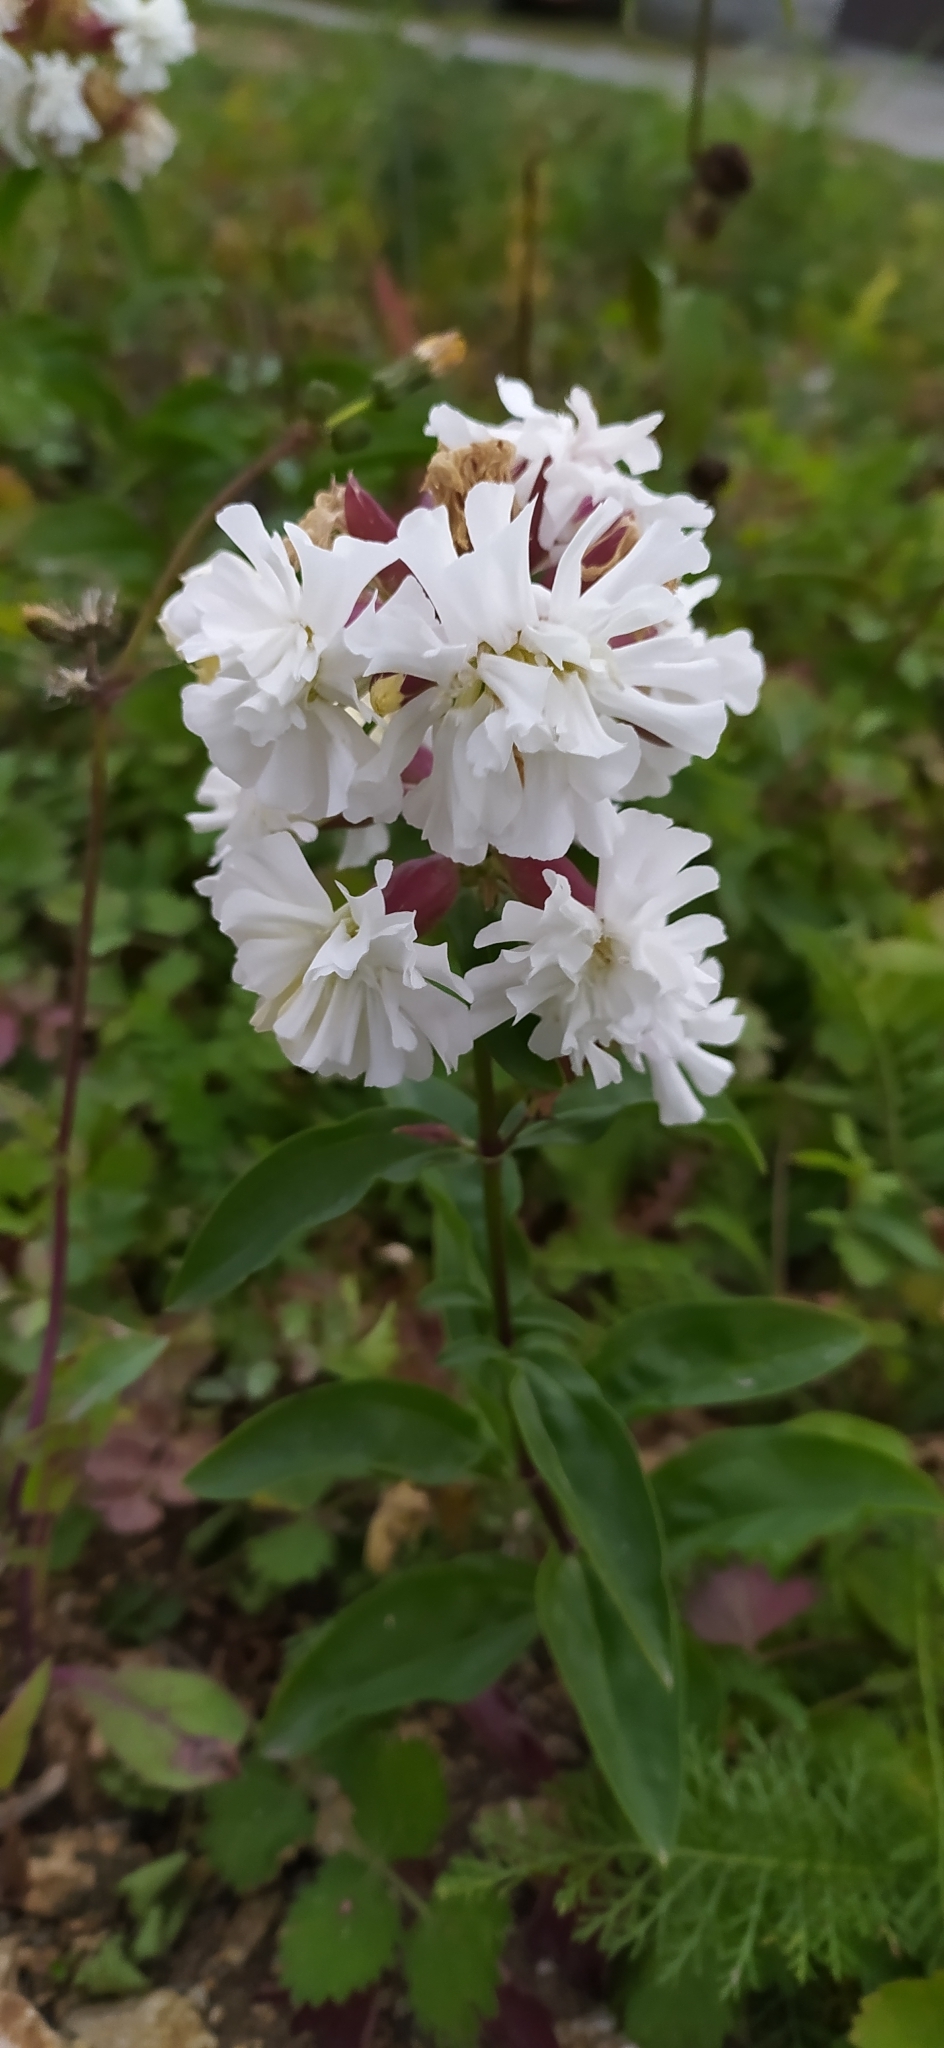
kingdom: Plantae
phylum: Tracheophyta
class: Magnoliopsida
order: Caryophyllales
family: Caryophyllaceae
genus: Saponaria
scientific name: Saponaria officinalis
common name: Soapwort
